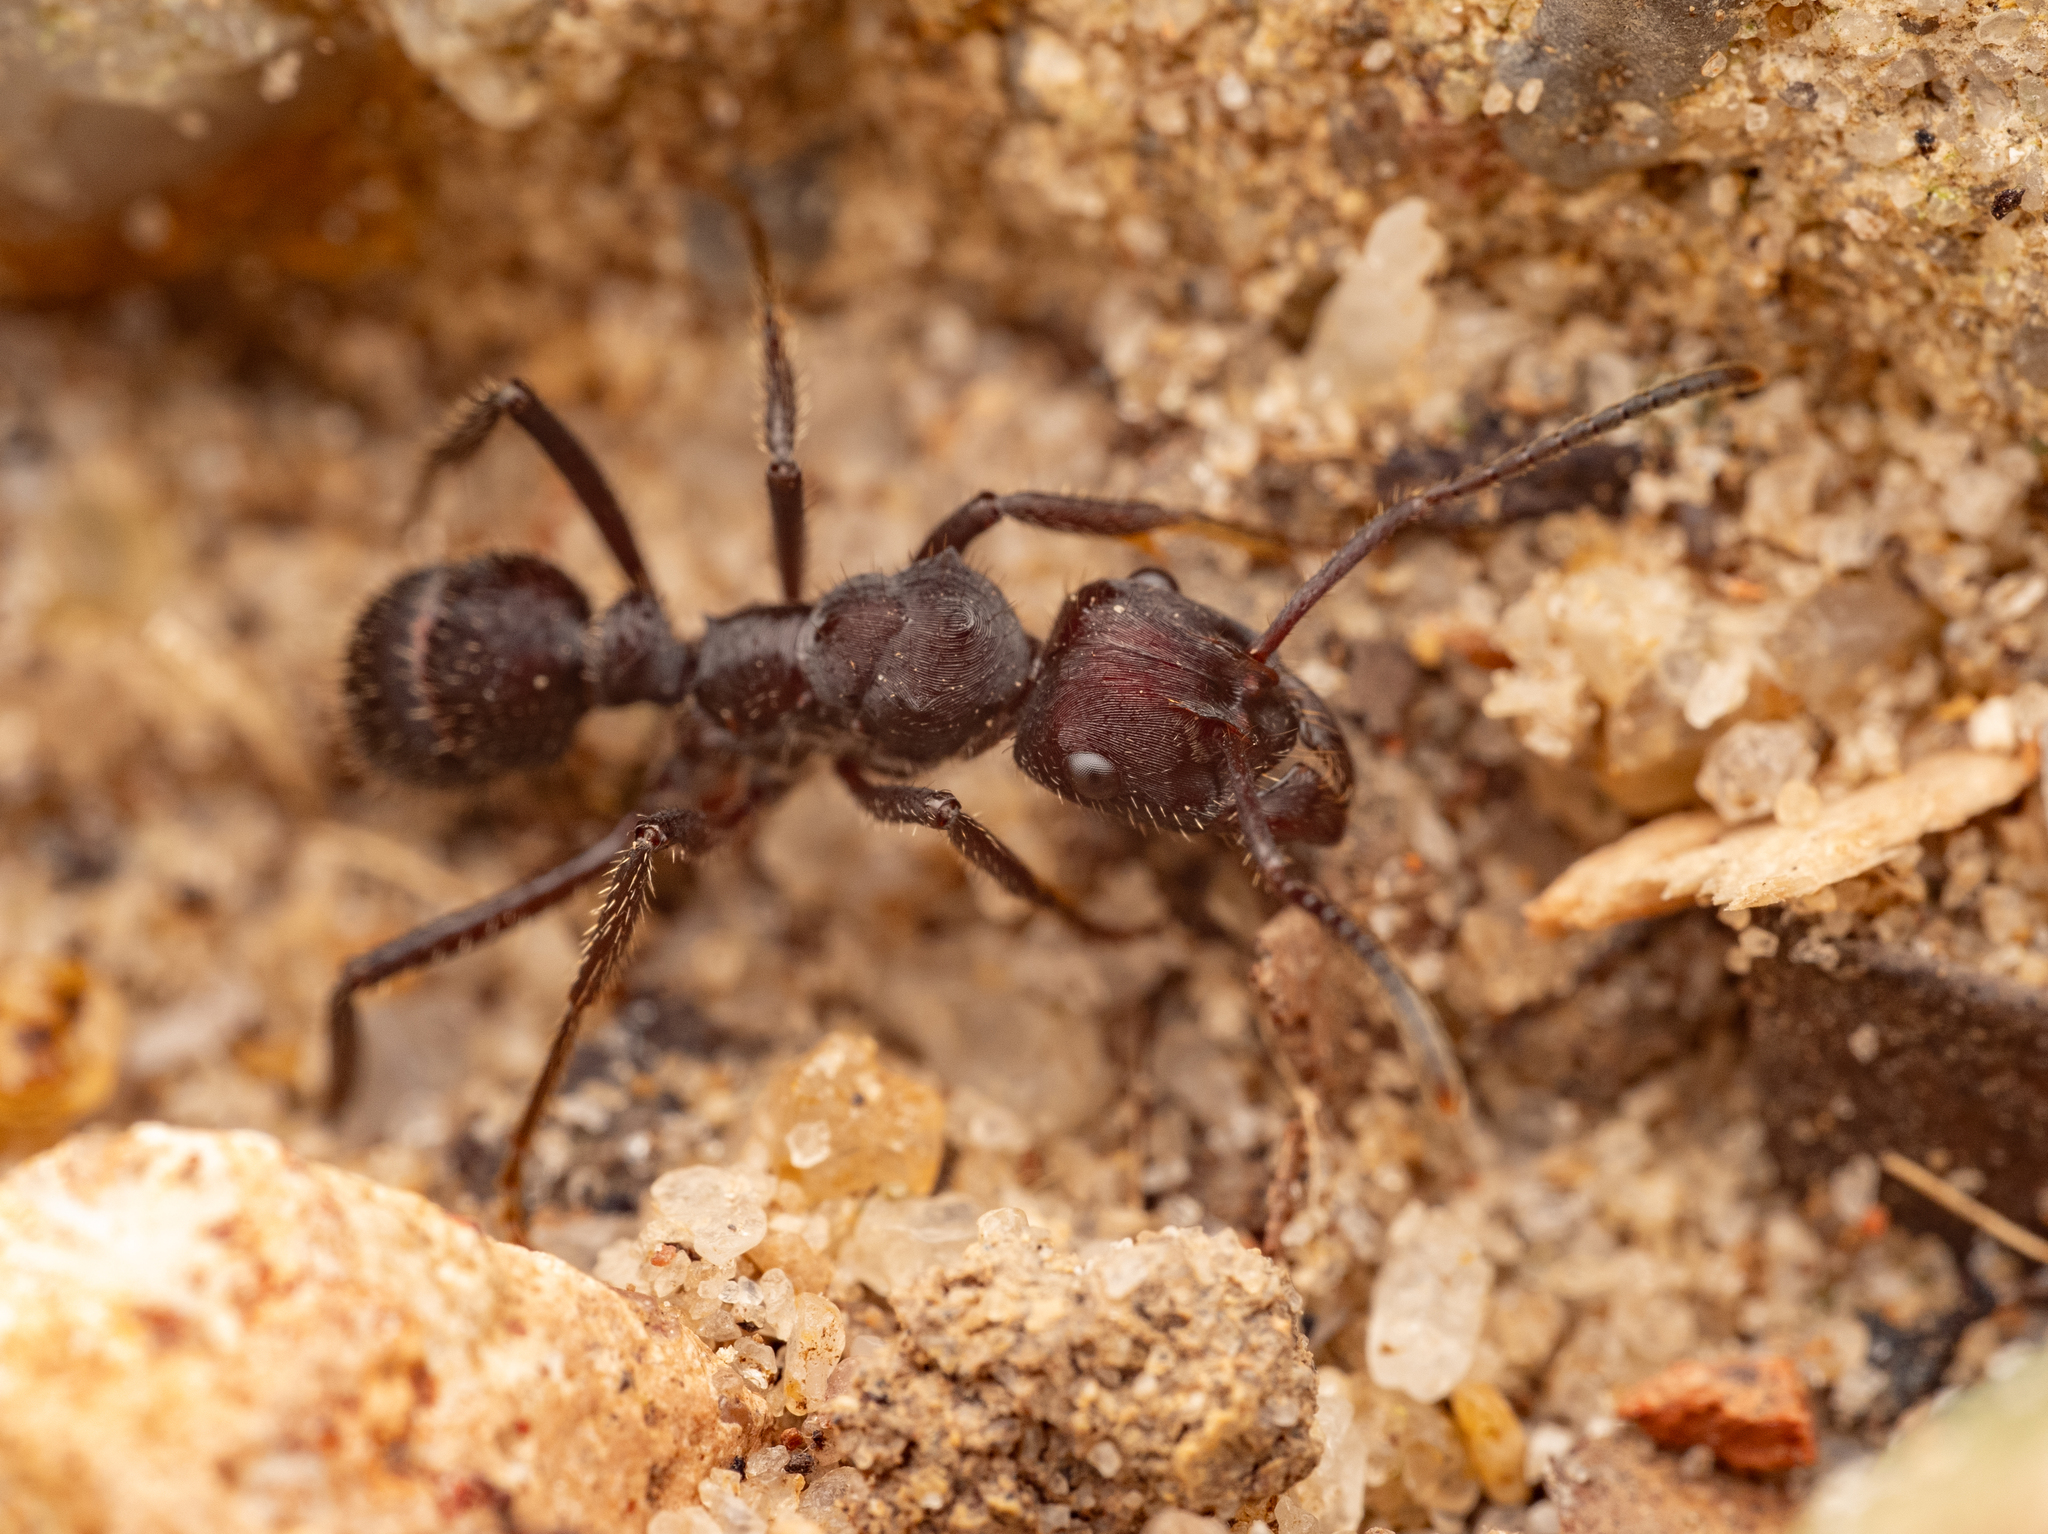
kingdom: Animalia
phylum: Arthropoda
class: Insecta
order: Hymenoptera
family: Formicidae
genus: Ectatomma
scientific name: Ectatomma brunneum
